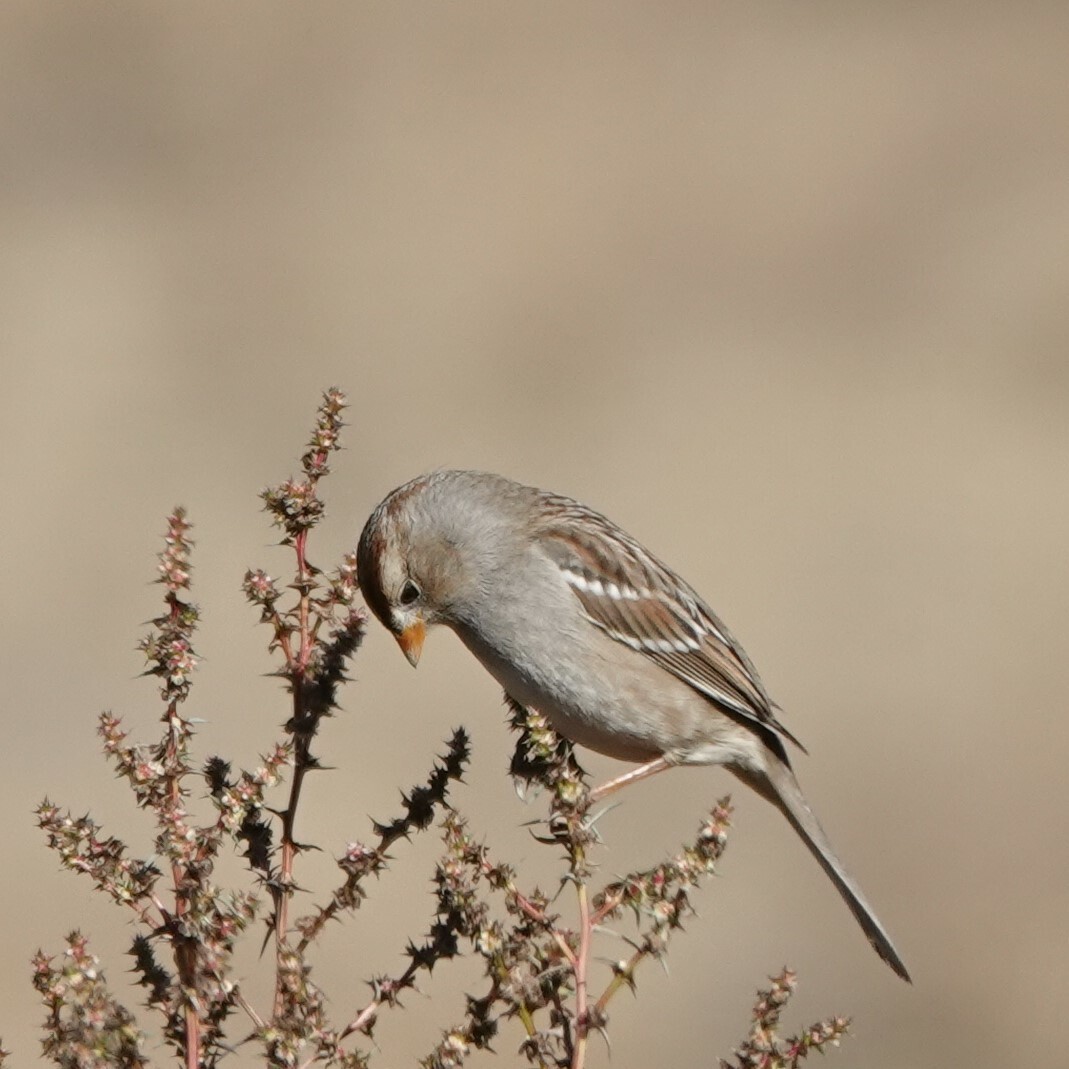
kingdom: Animalia
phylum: Chordata
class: Aves
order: Passeriformes
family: Passerellidae
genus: Zonotrichia
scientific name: Zonotrichia leucophrys
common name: White-crowned sparrow
